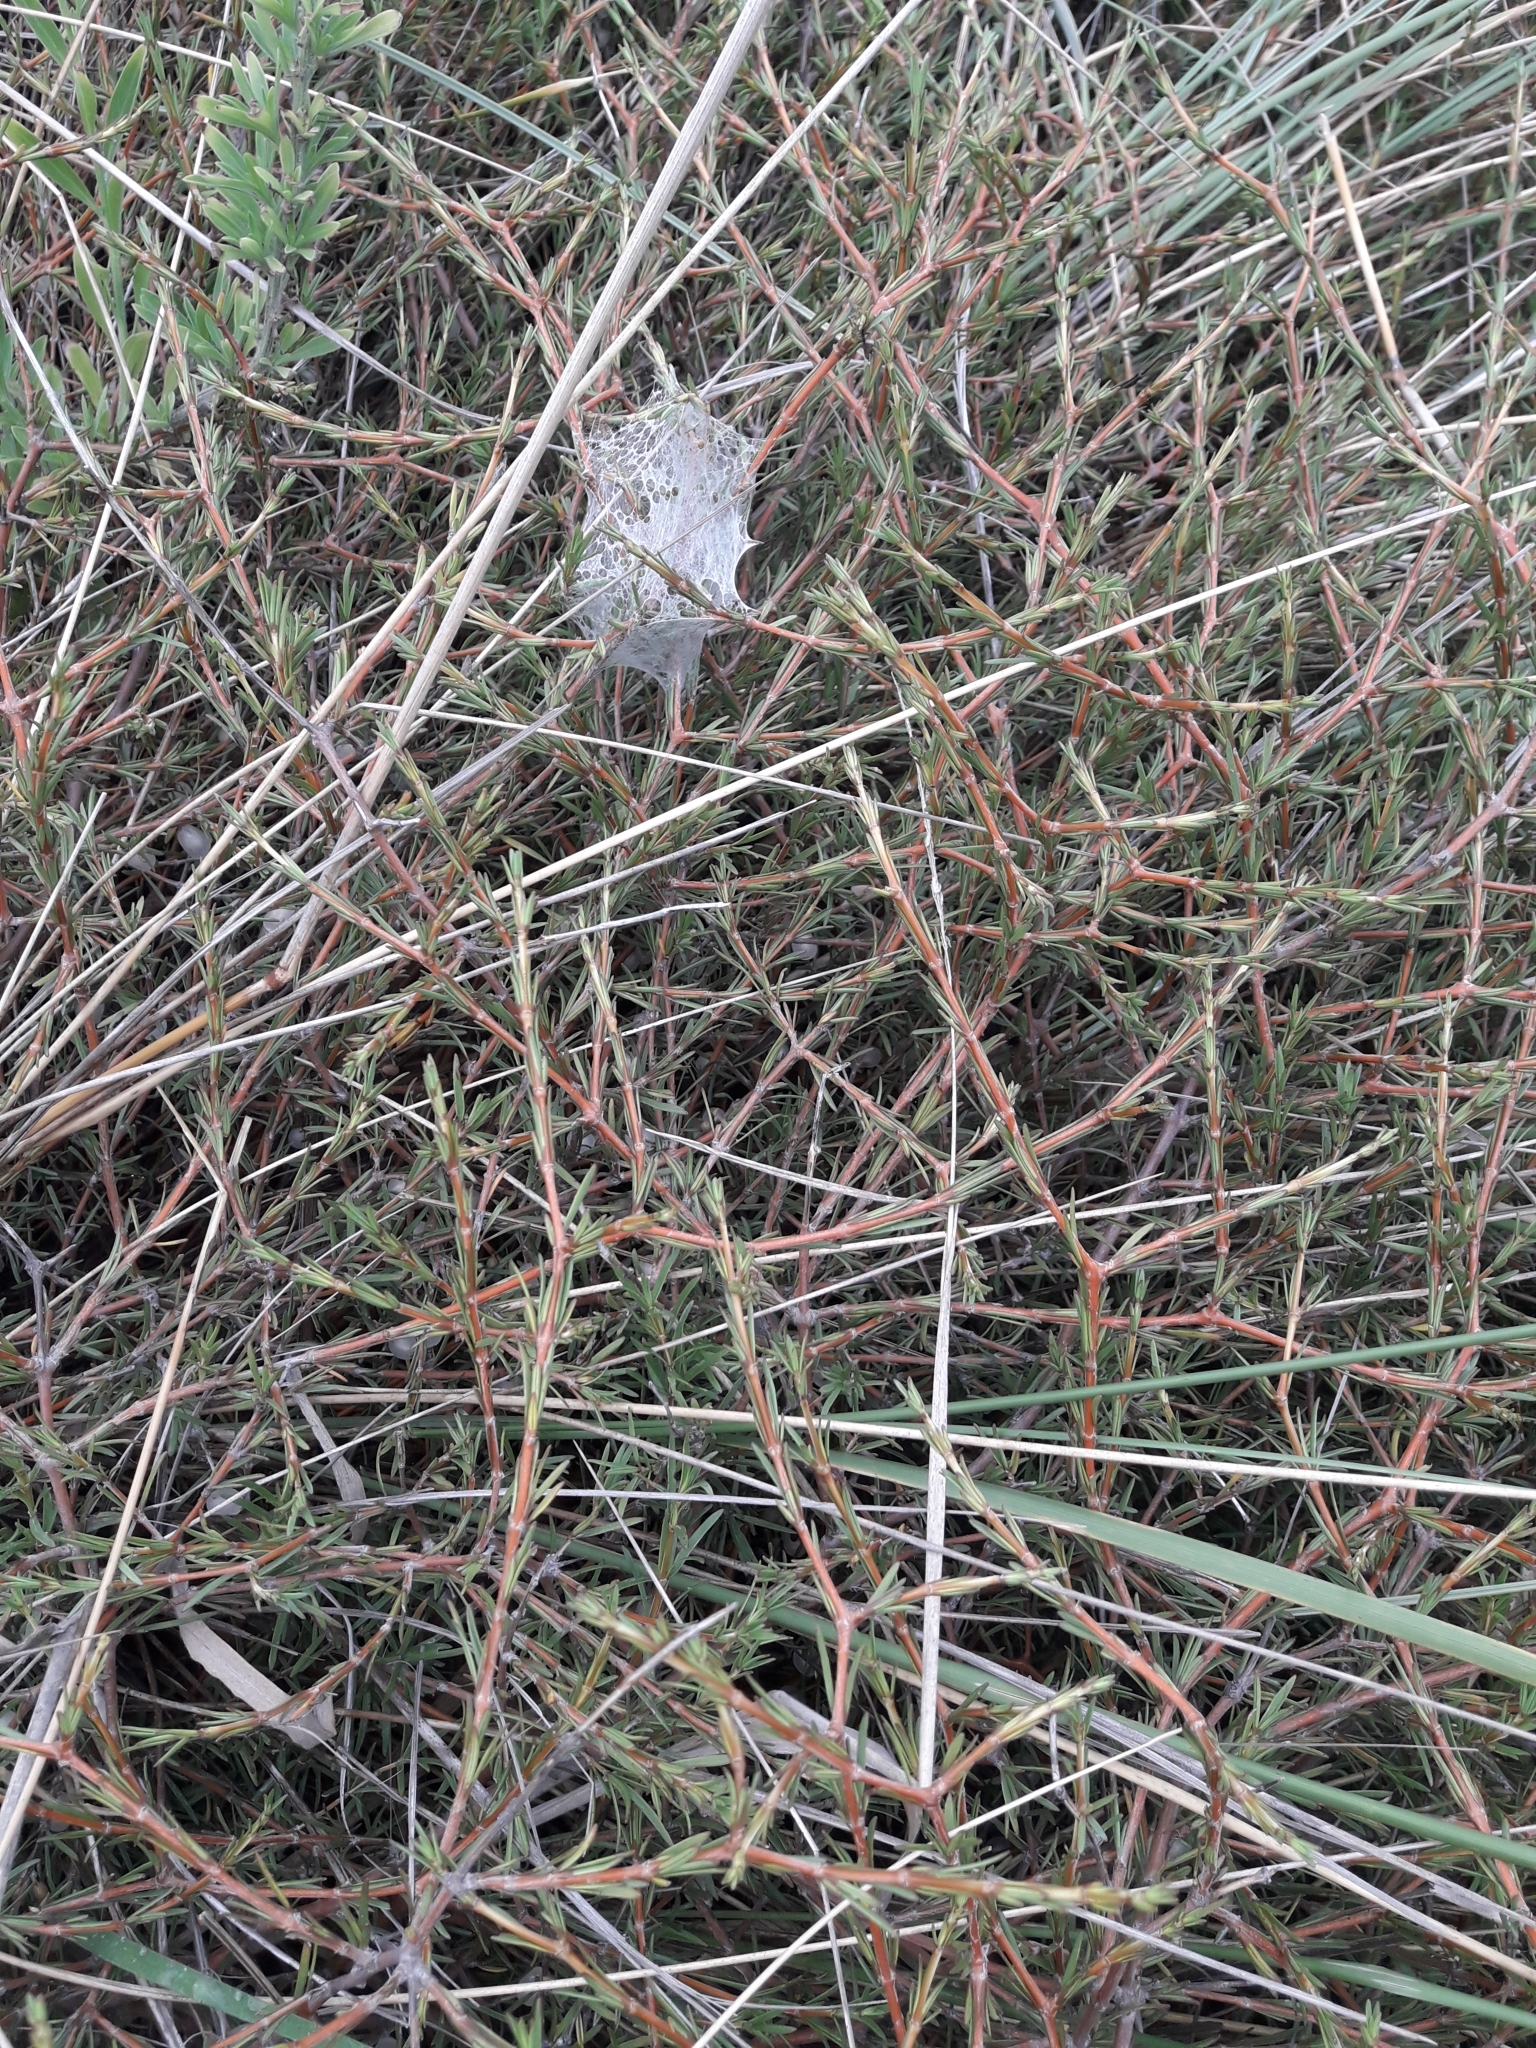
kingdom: Plantae
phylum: Tracheophyta
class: Magnoliopsida
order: Gentianales
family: Rubiaceae
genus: Coprosma
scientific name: Coprosma acerosa
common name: Sand coprosma
